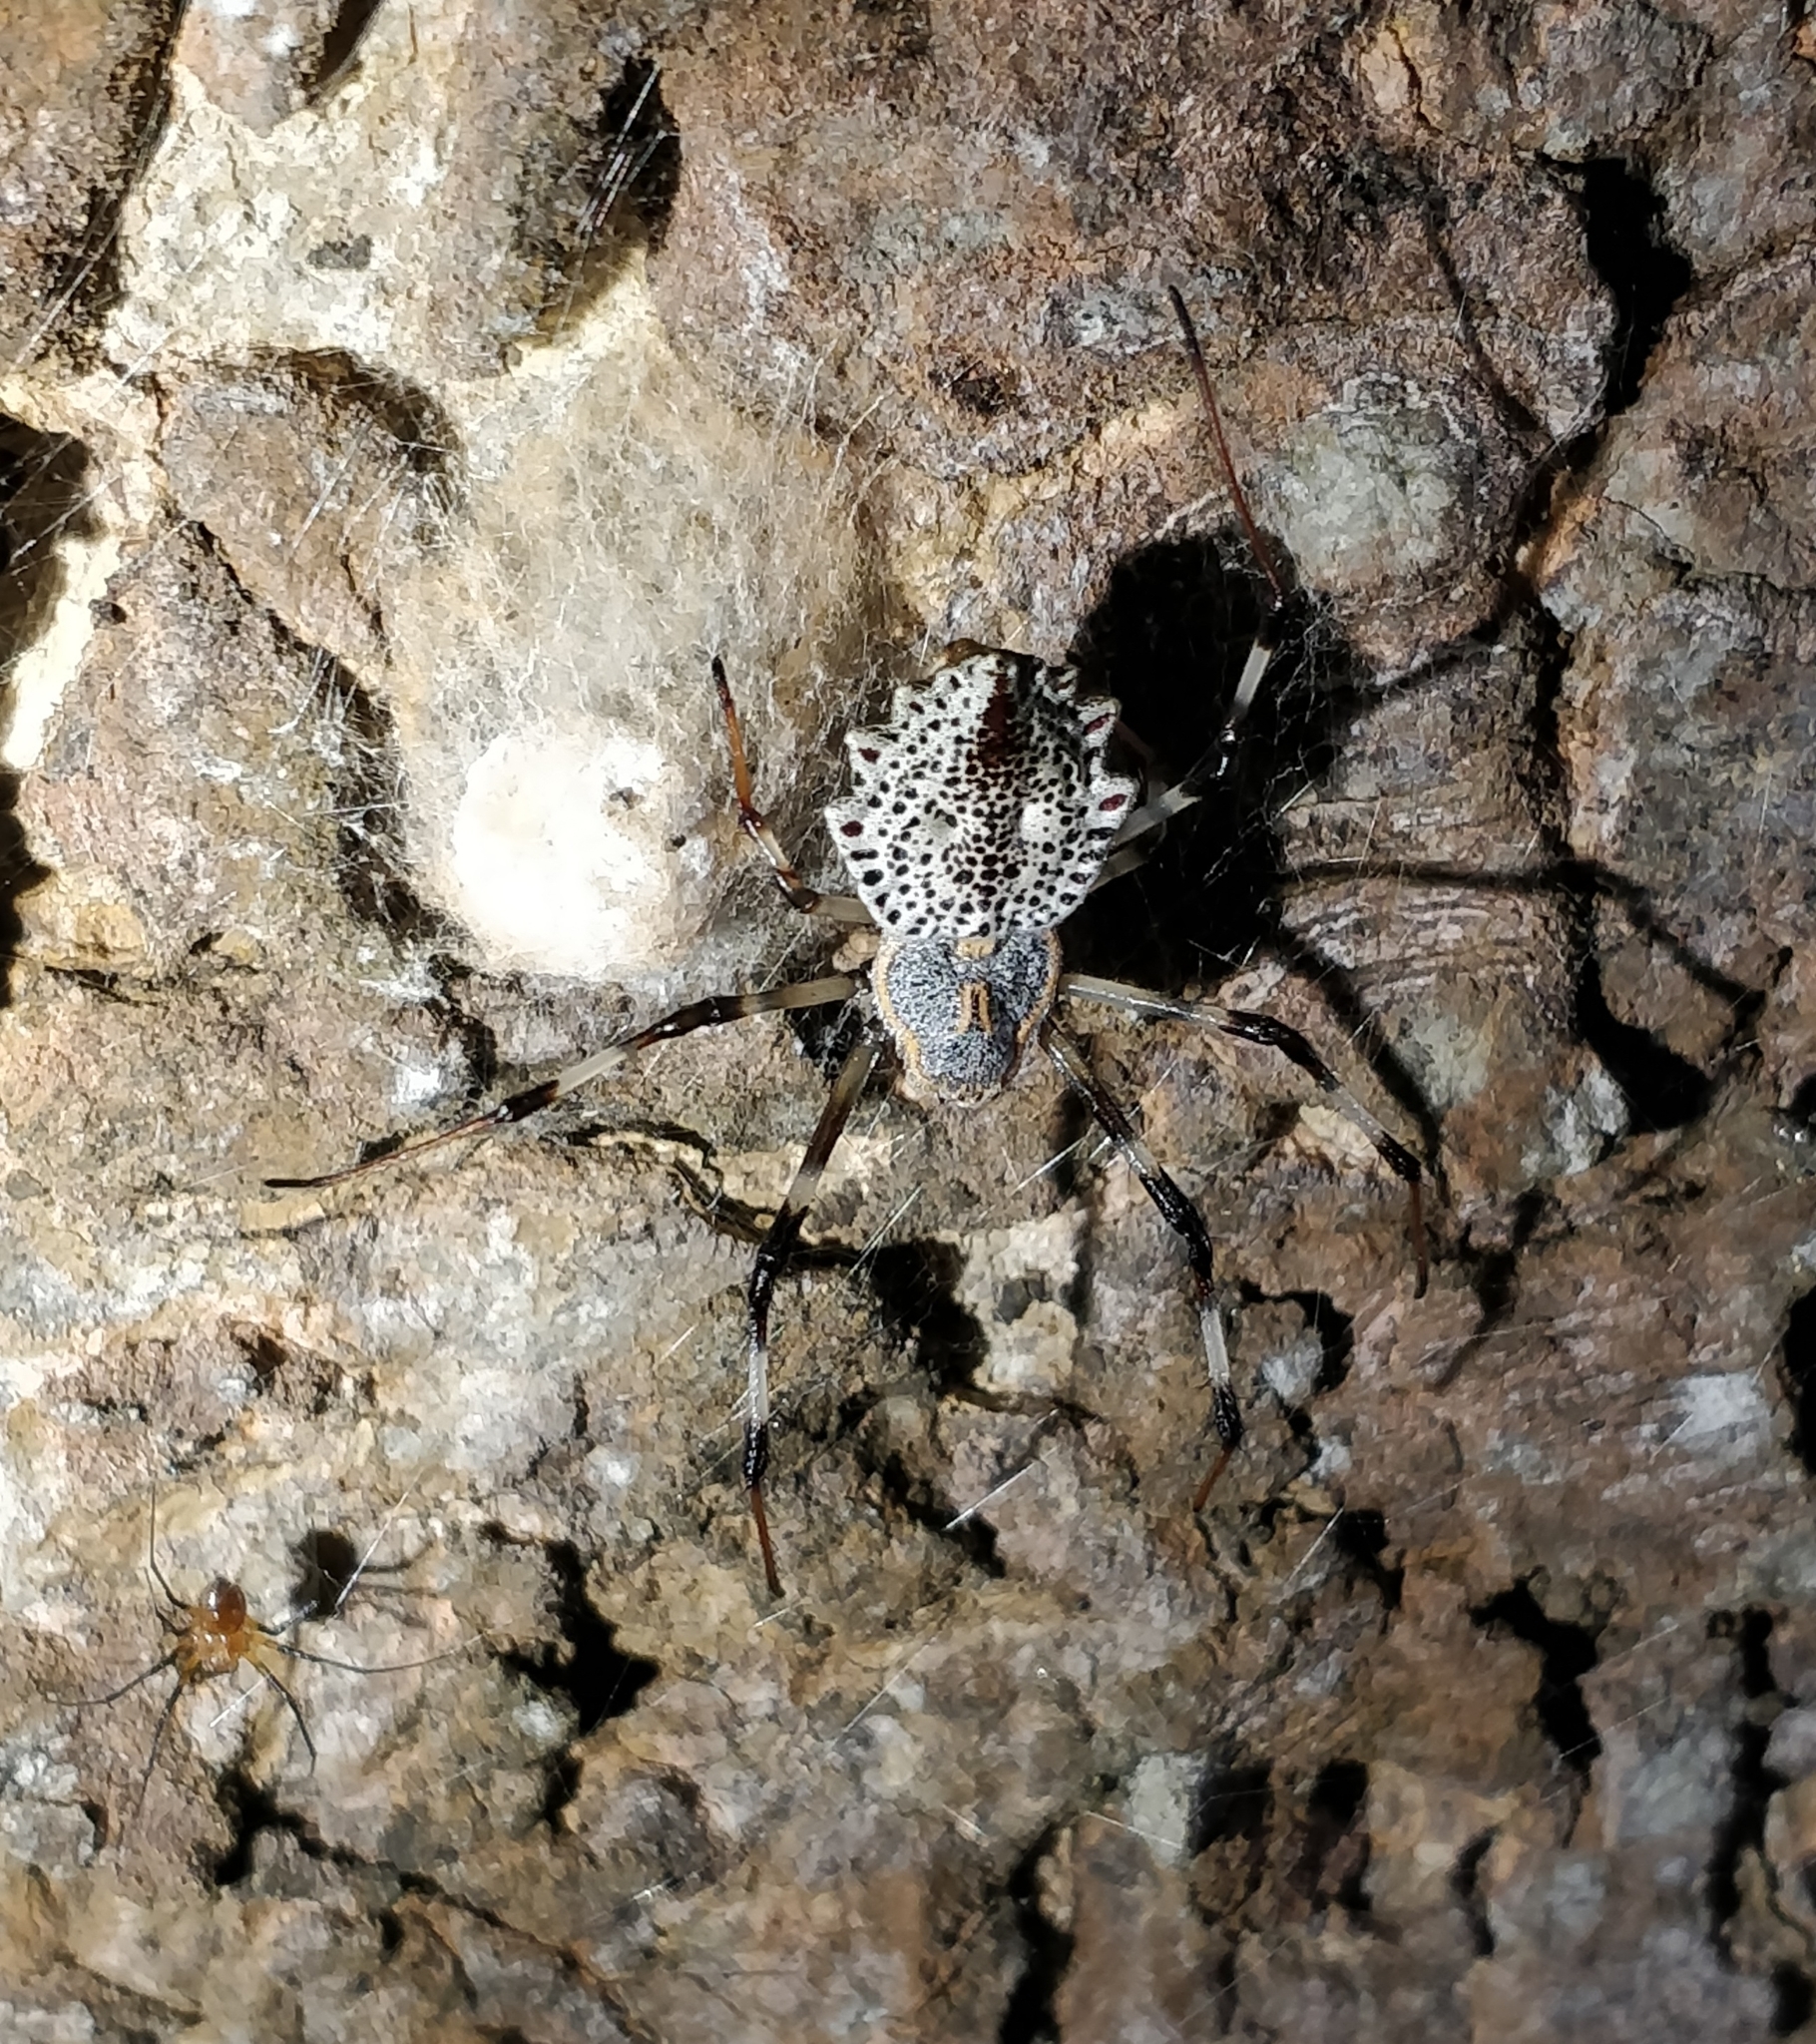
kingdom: Animalia
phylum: Arthropoda
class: Arachnida
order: Araneae
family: Araneidae
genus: Herennia
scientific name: Herennia multipuncta
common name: Spotted coin spider
